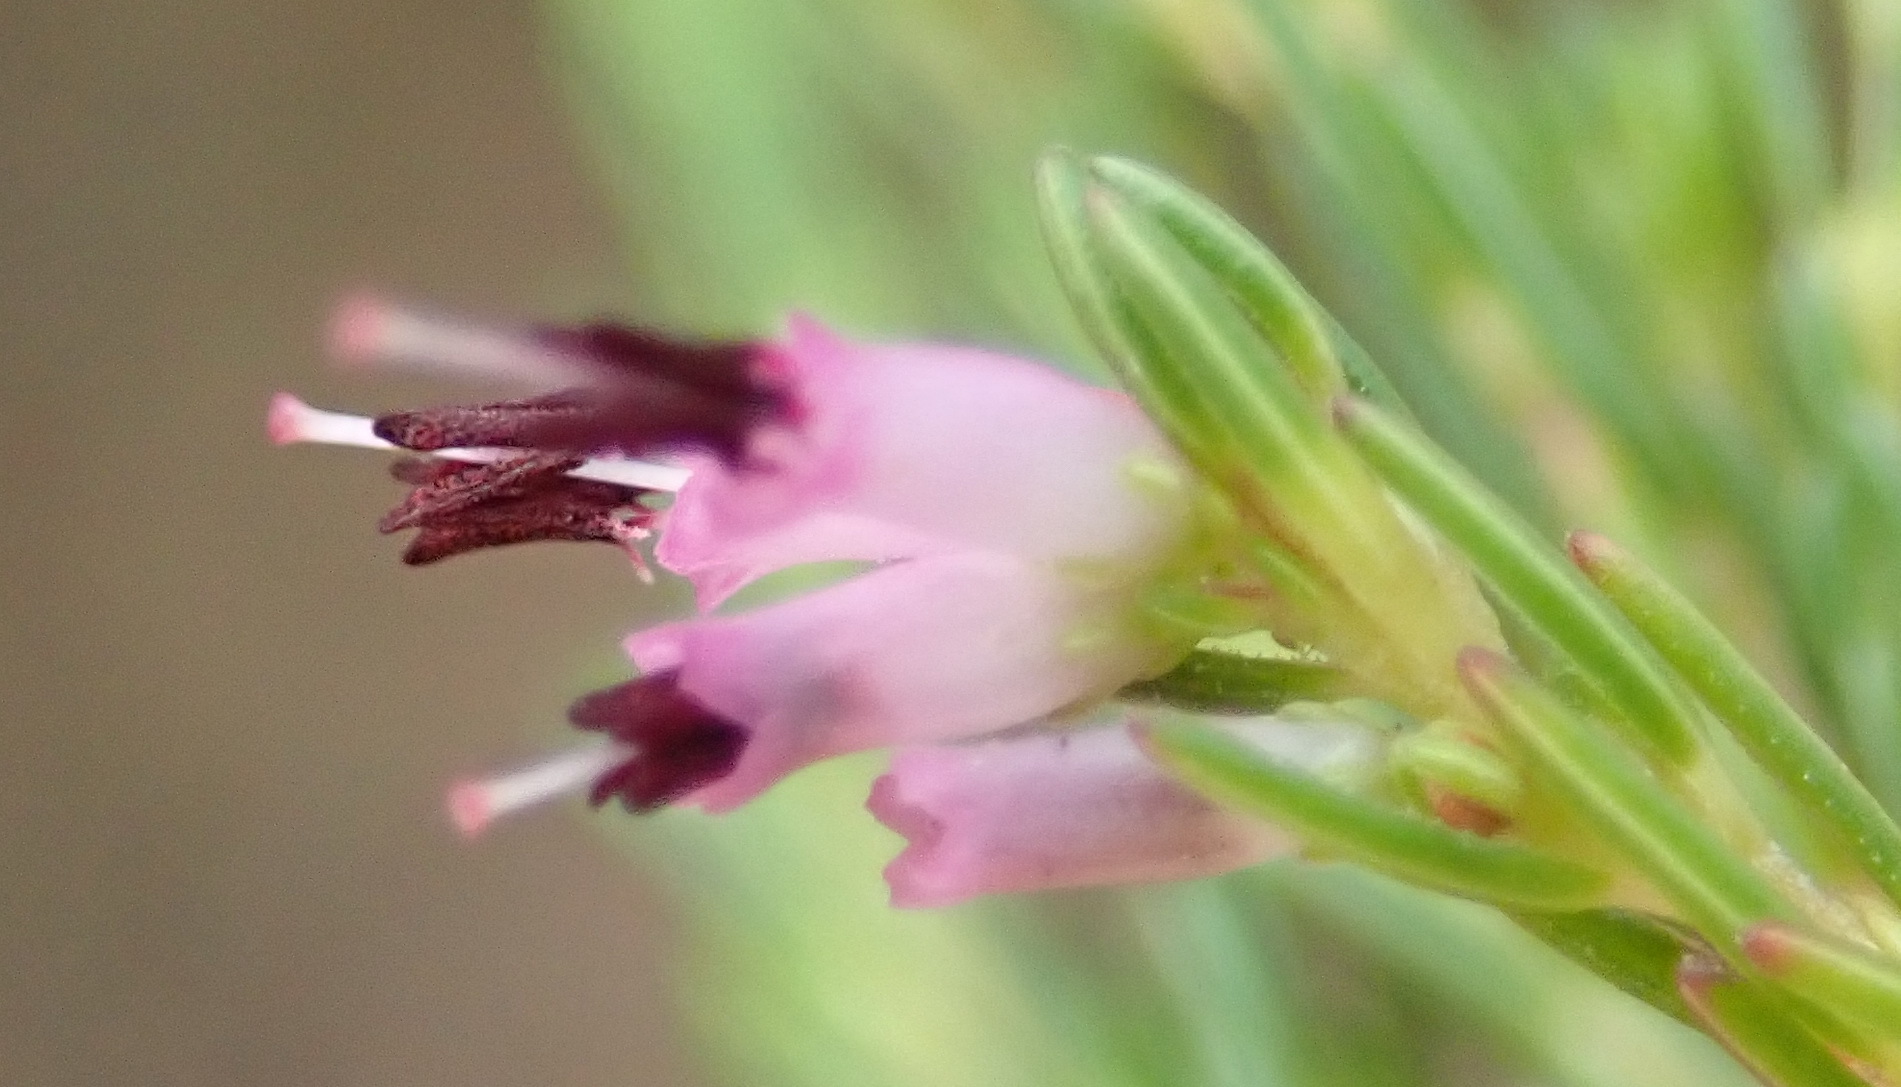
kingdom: Plantae
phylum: Tracheophyta
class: Magnoliopsida
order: Ericales
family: Ericaceae
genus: Erica
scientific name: Erica quadrifida
